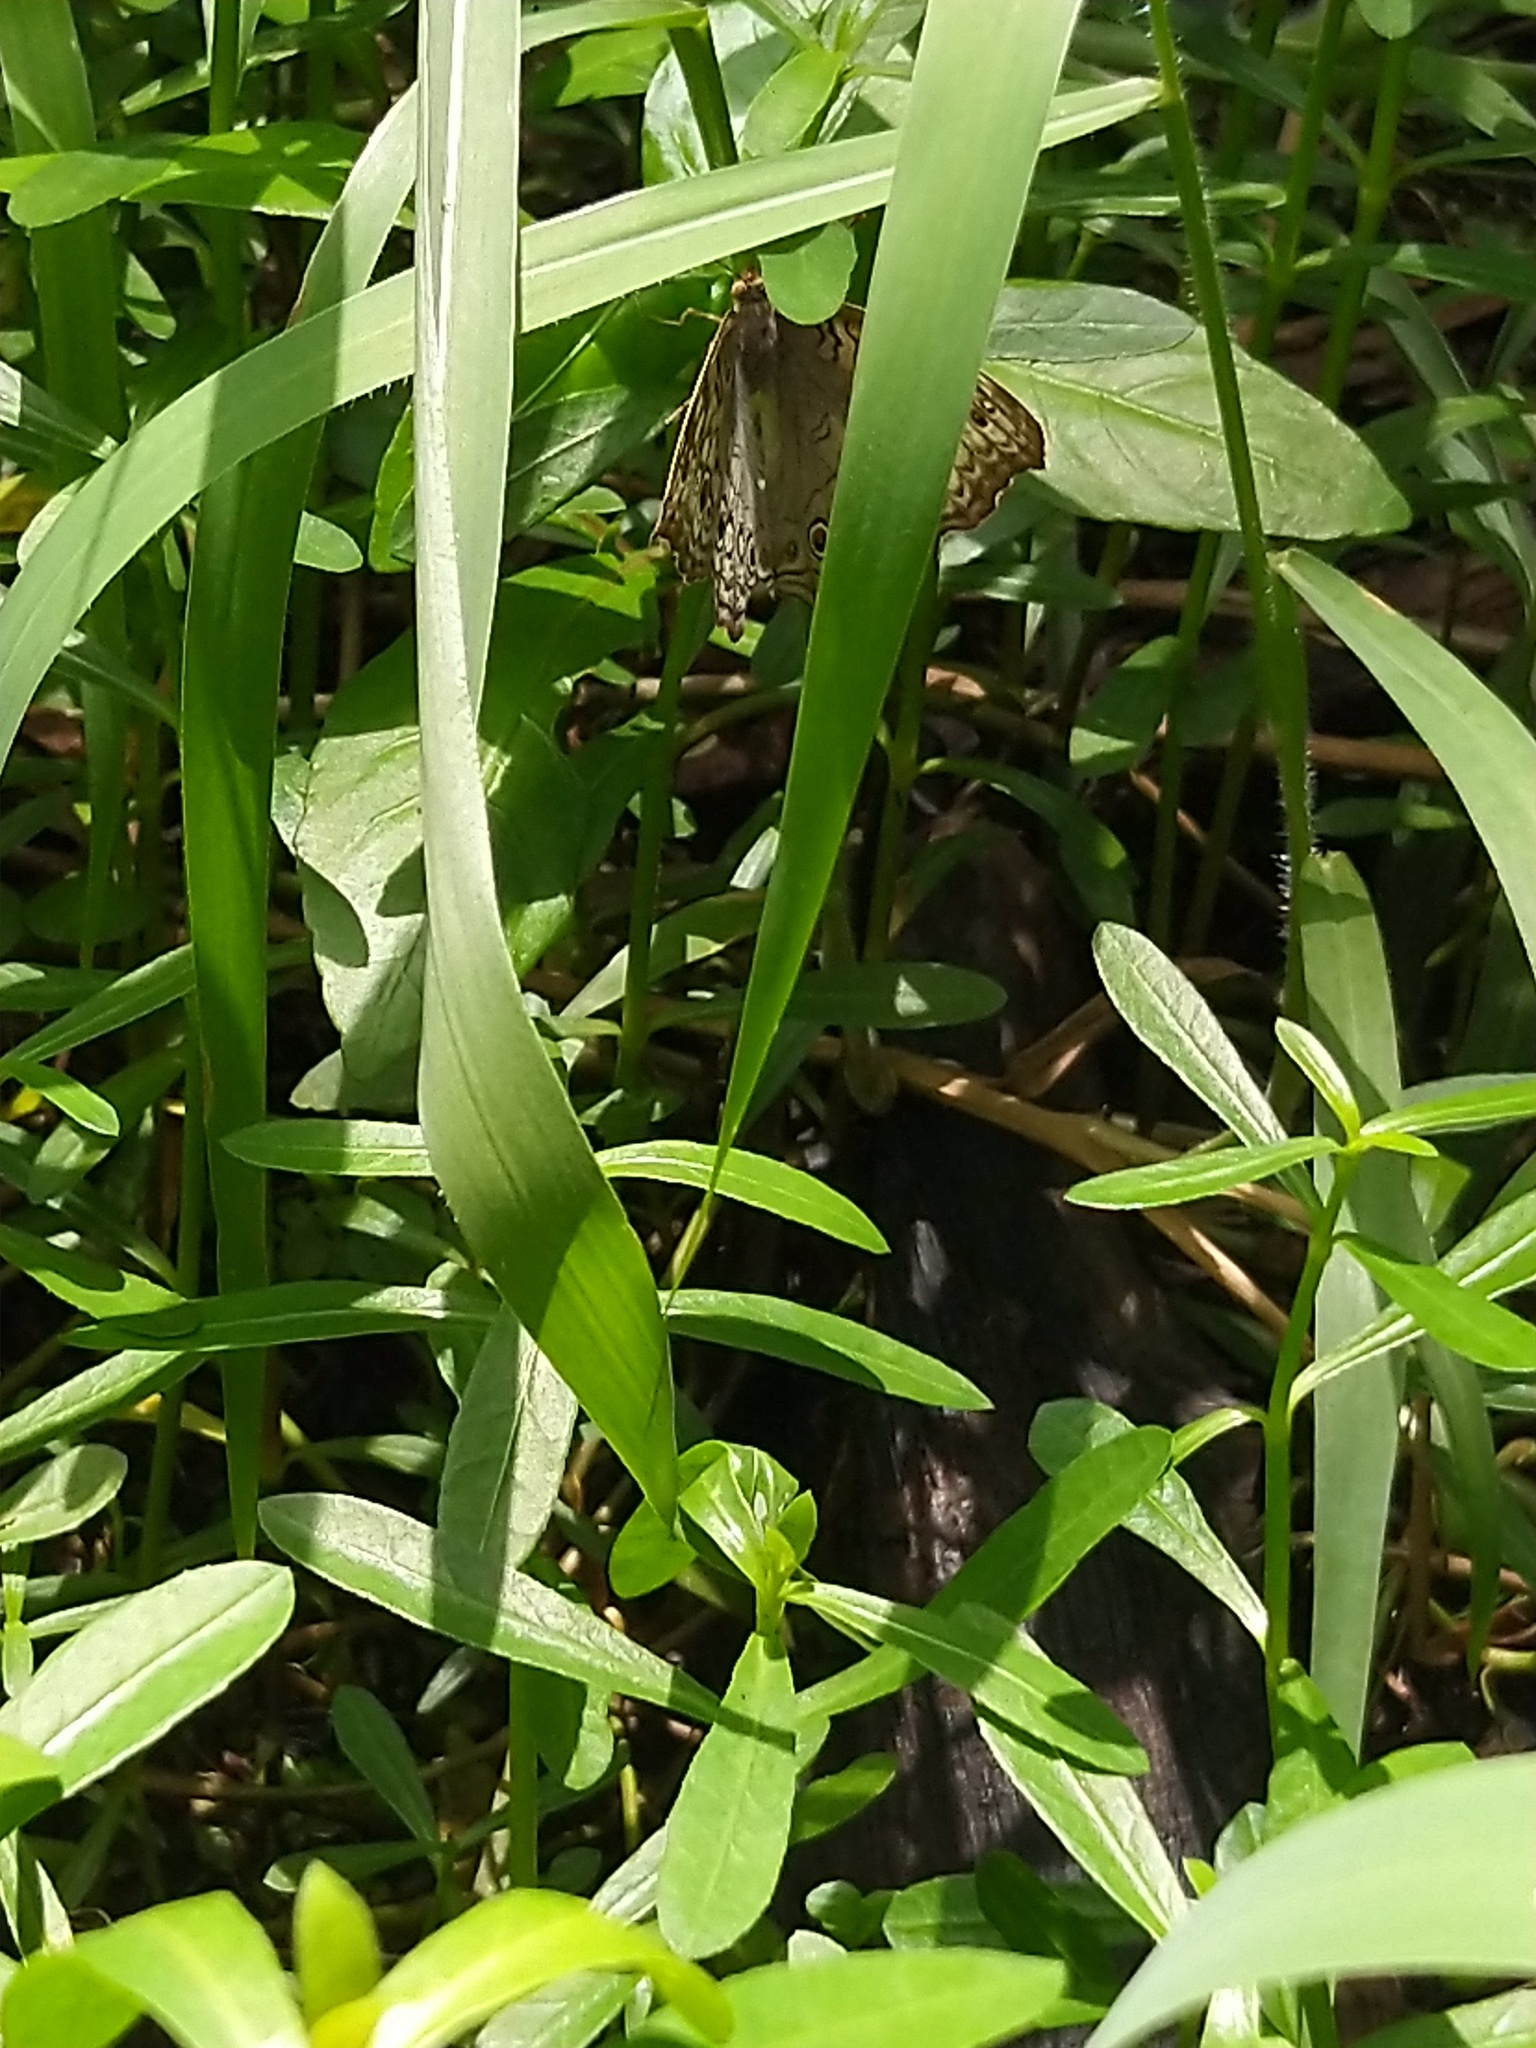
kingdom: Animalia
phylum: Arthropoda
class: Insecta
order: Lepidoptera
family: Nymphalidae
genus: Junonia
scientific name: Junonia atlites
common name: Grey pansy
